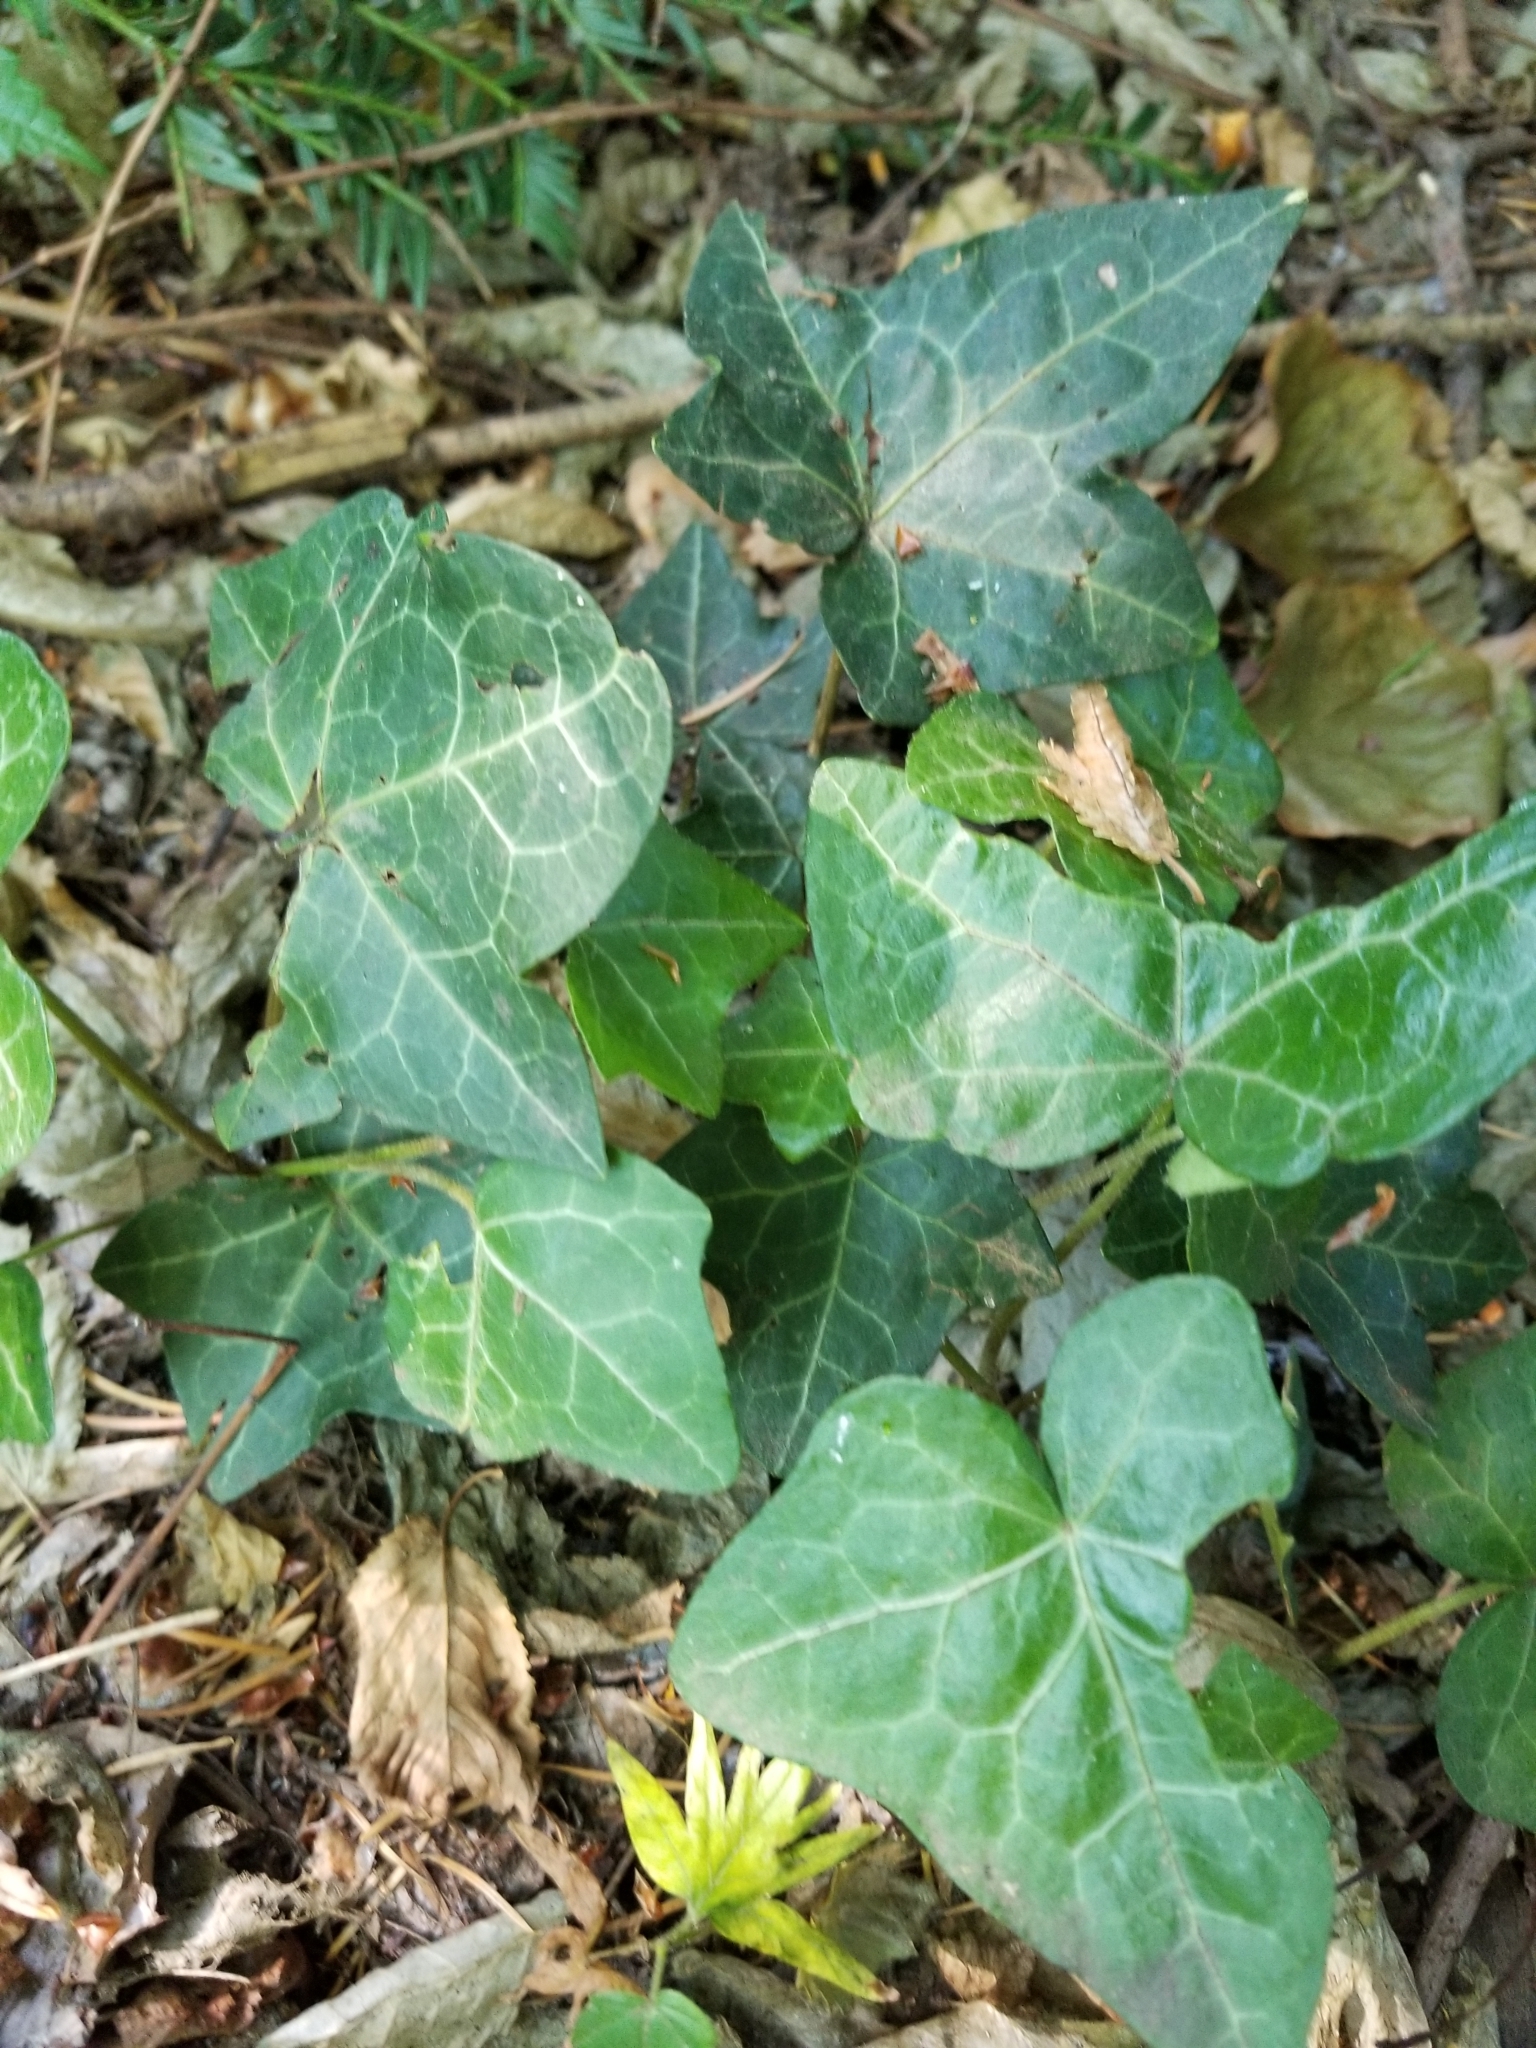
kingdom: Plantae
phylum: Tracheophyta
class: Magnoliopsida
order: Apiales
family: Araliaceae
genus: Hedera
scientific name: Hedera helix
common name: Ivy
